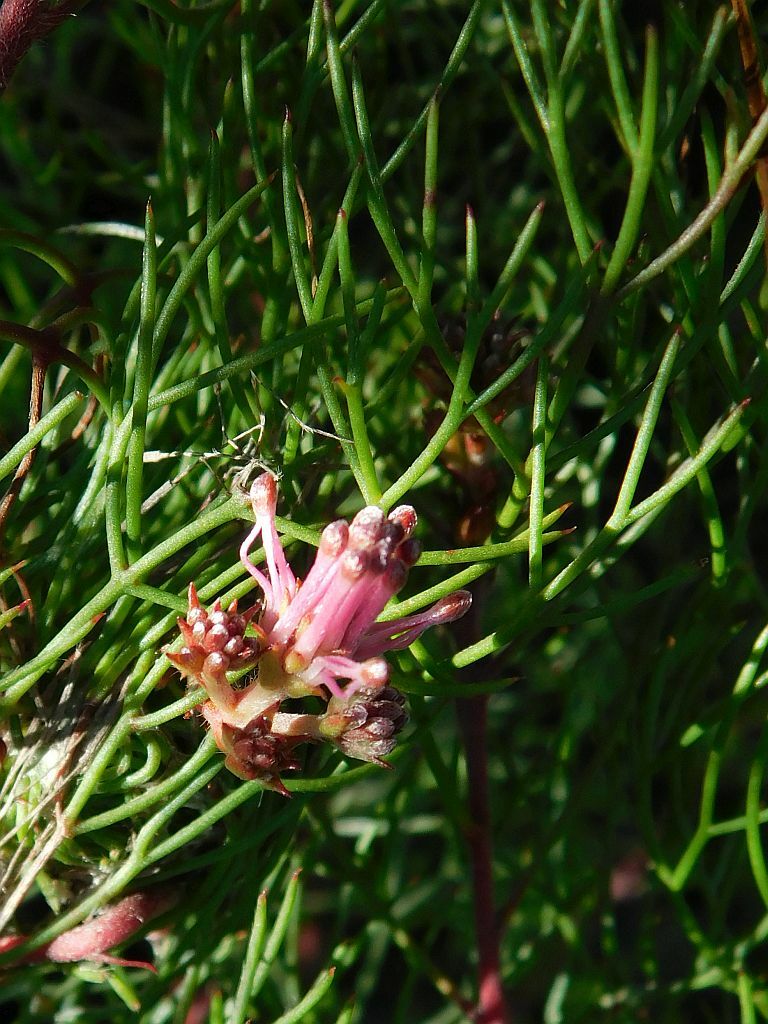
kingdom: Plantae
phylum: Tracheophyta
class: Magnoliopsida
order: Proteales
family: Proteaceae
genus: Serruria
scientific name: Serruria fasciflora
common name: Common pin spiderhead
